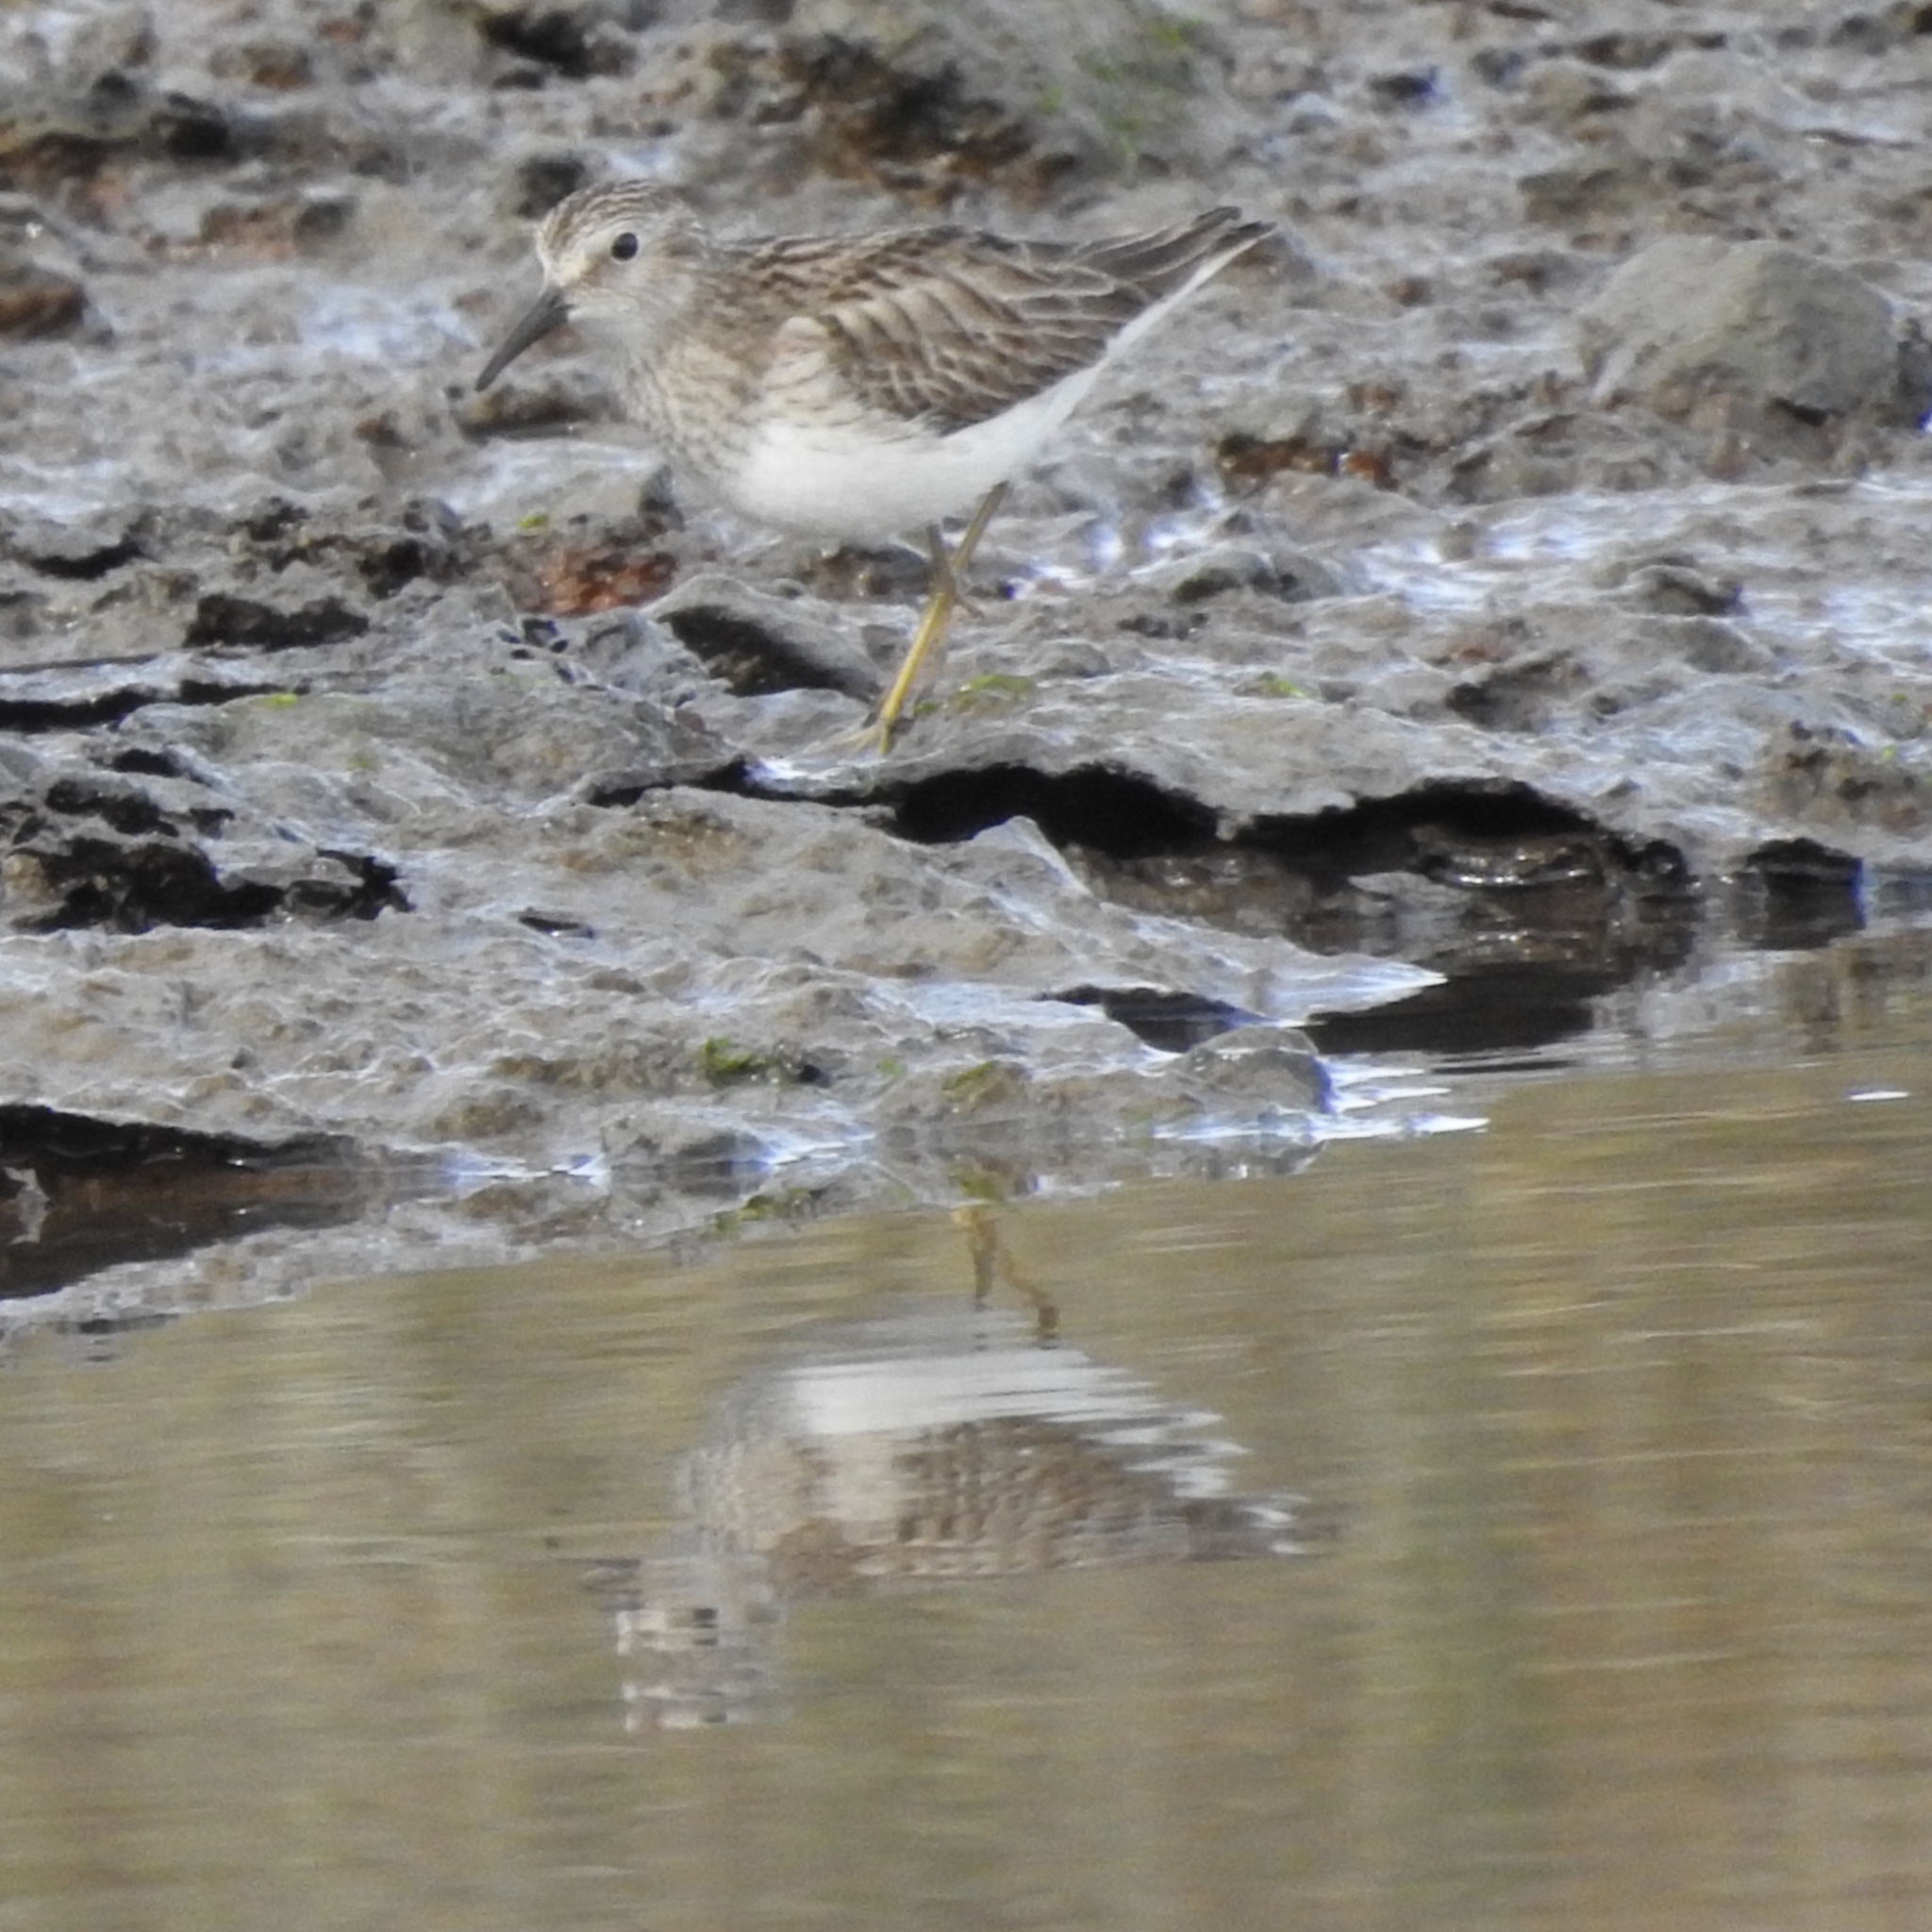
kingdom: Animalia
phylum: Chordata
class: Aves
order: Charadriiformes
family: Scolopacidae
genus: Calidris
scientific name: Calidris minutilla
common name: Least sandpiper
